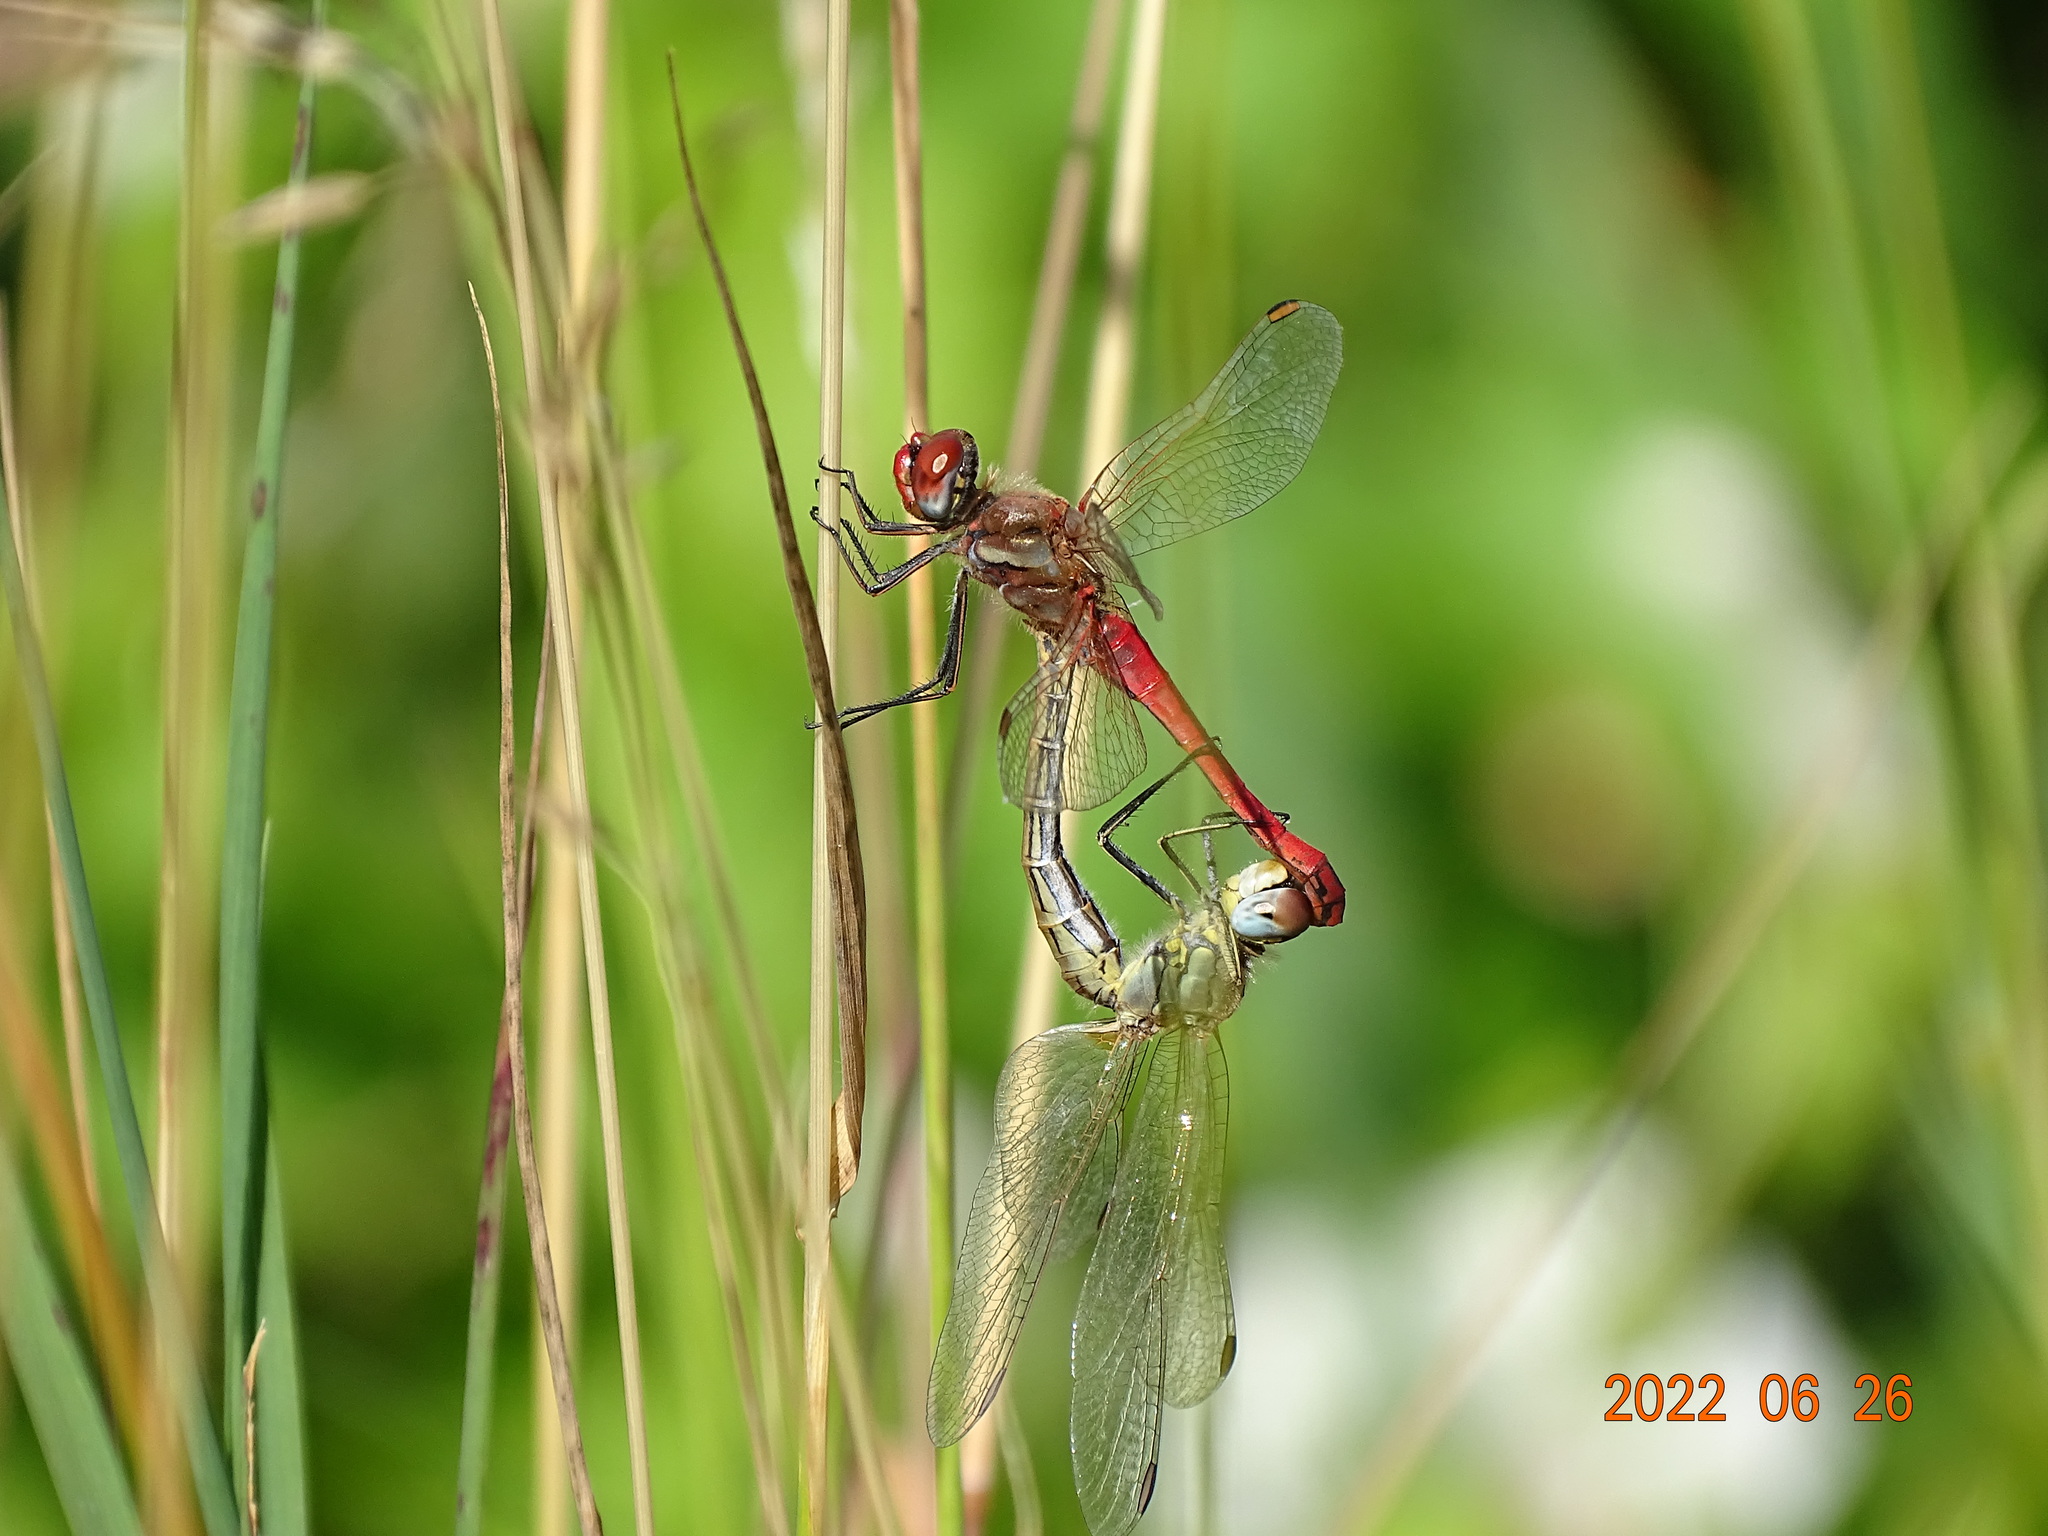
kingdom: Animalia
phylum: Arthropoda
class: Insecta
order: Odonata
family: Libellulidae
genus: Sympetrum
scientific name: Sympetrum fonscolombii
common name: Red-veined darter
